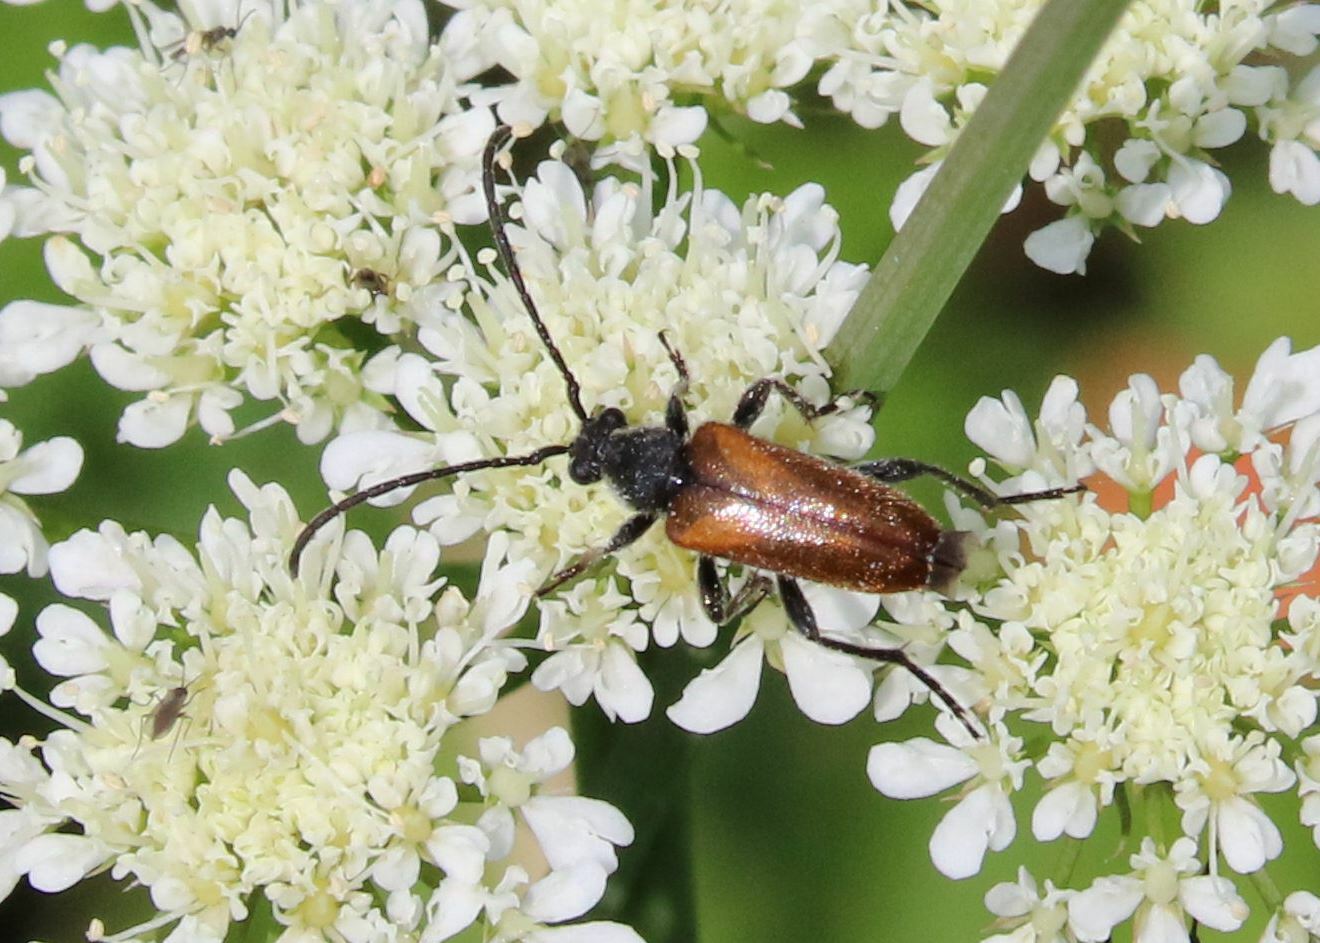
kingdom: Animalia
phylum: Arthropoda
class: Insecta
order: Coleoptera
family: Cerambycidae
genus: Pseudovadonia
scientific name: Pseudovadonia livida
